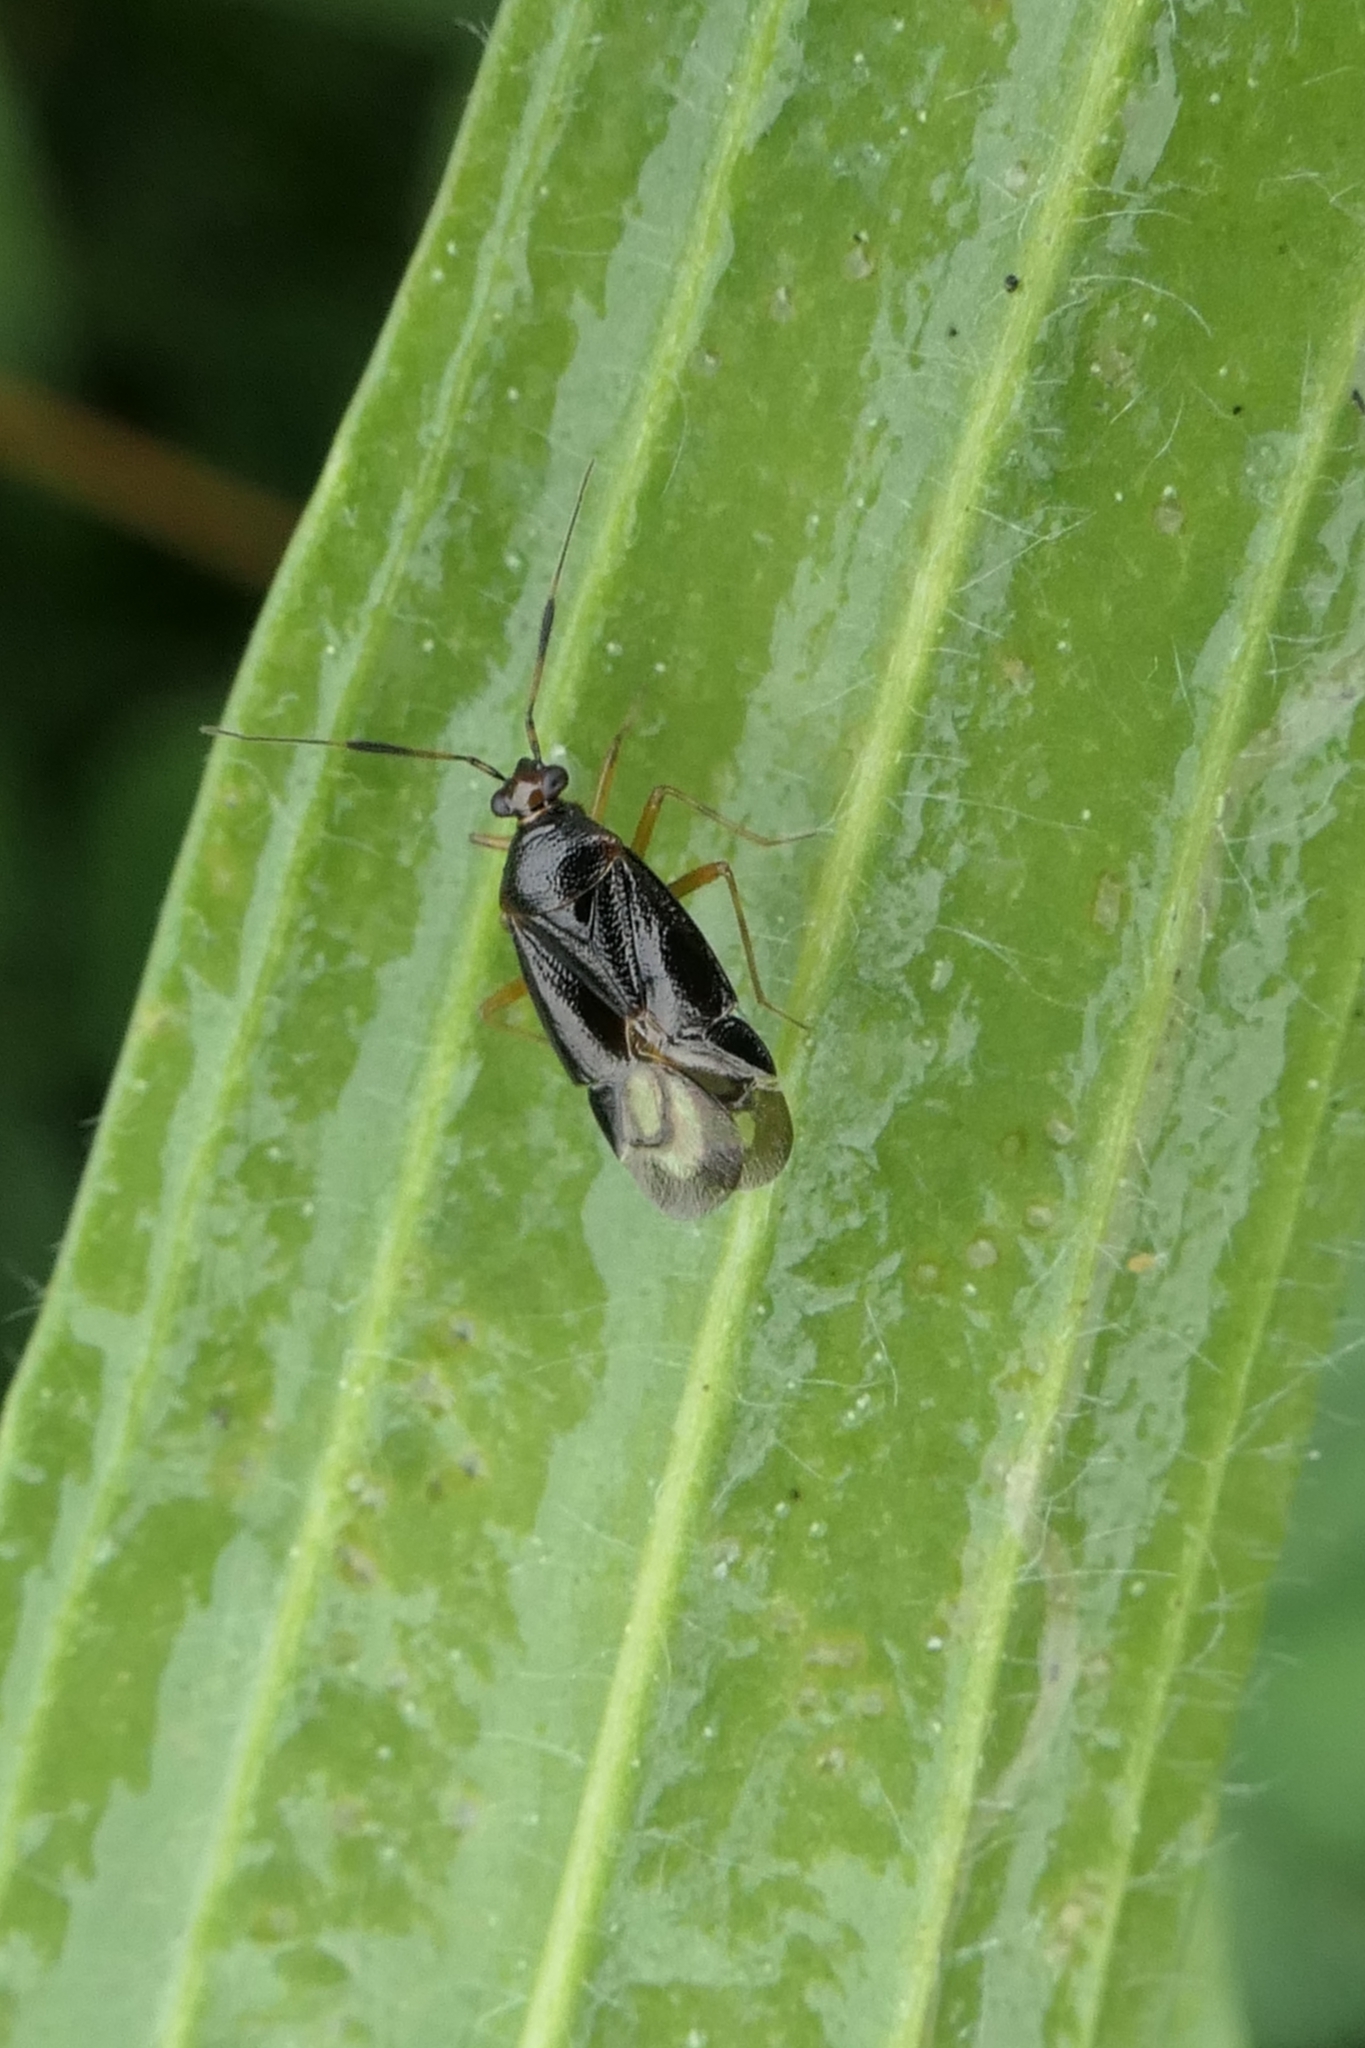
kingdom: Animalia
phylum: Arthropoda
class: Insecta
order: Hemiptera
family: Miridae
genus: Deraeocoris
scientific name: Deraeocoris maoricus
